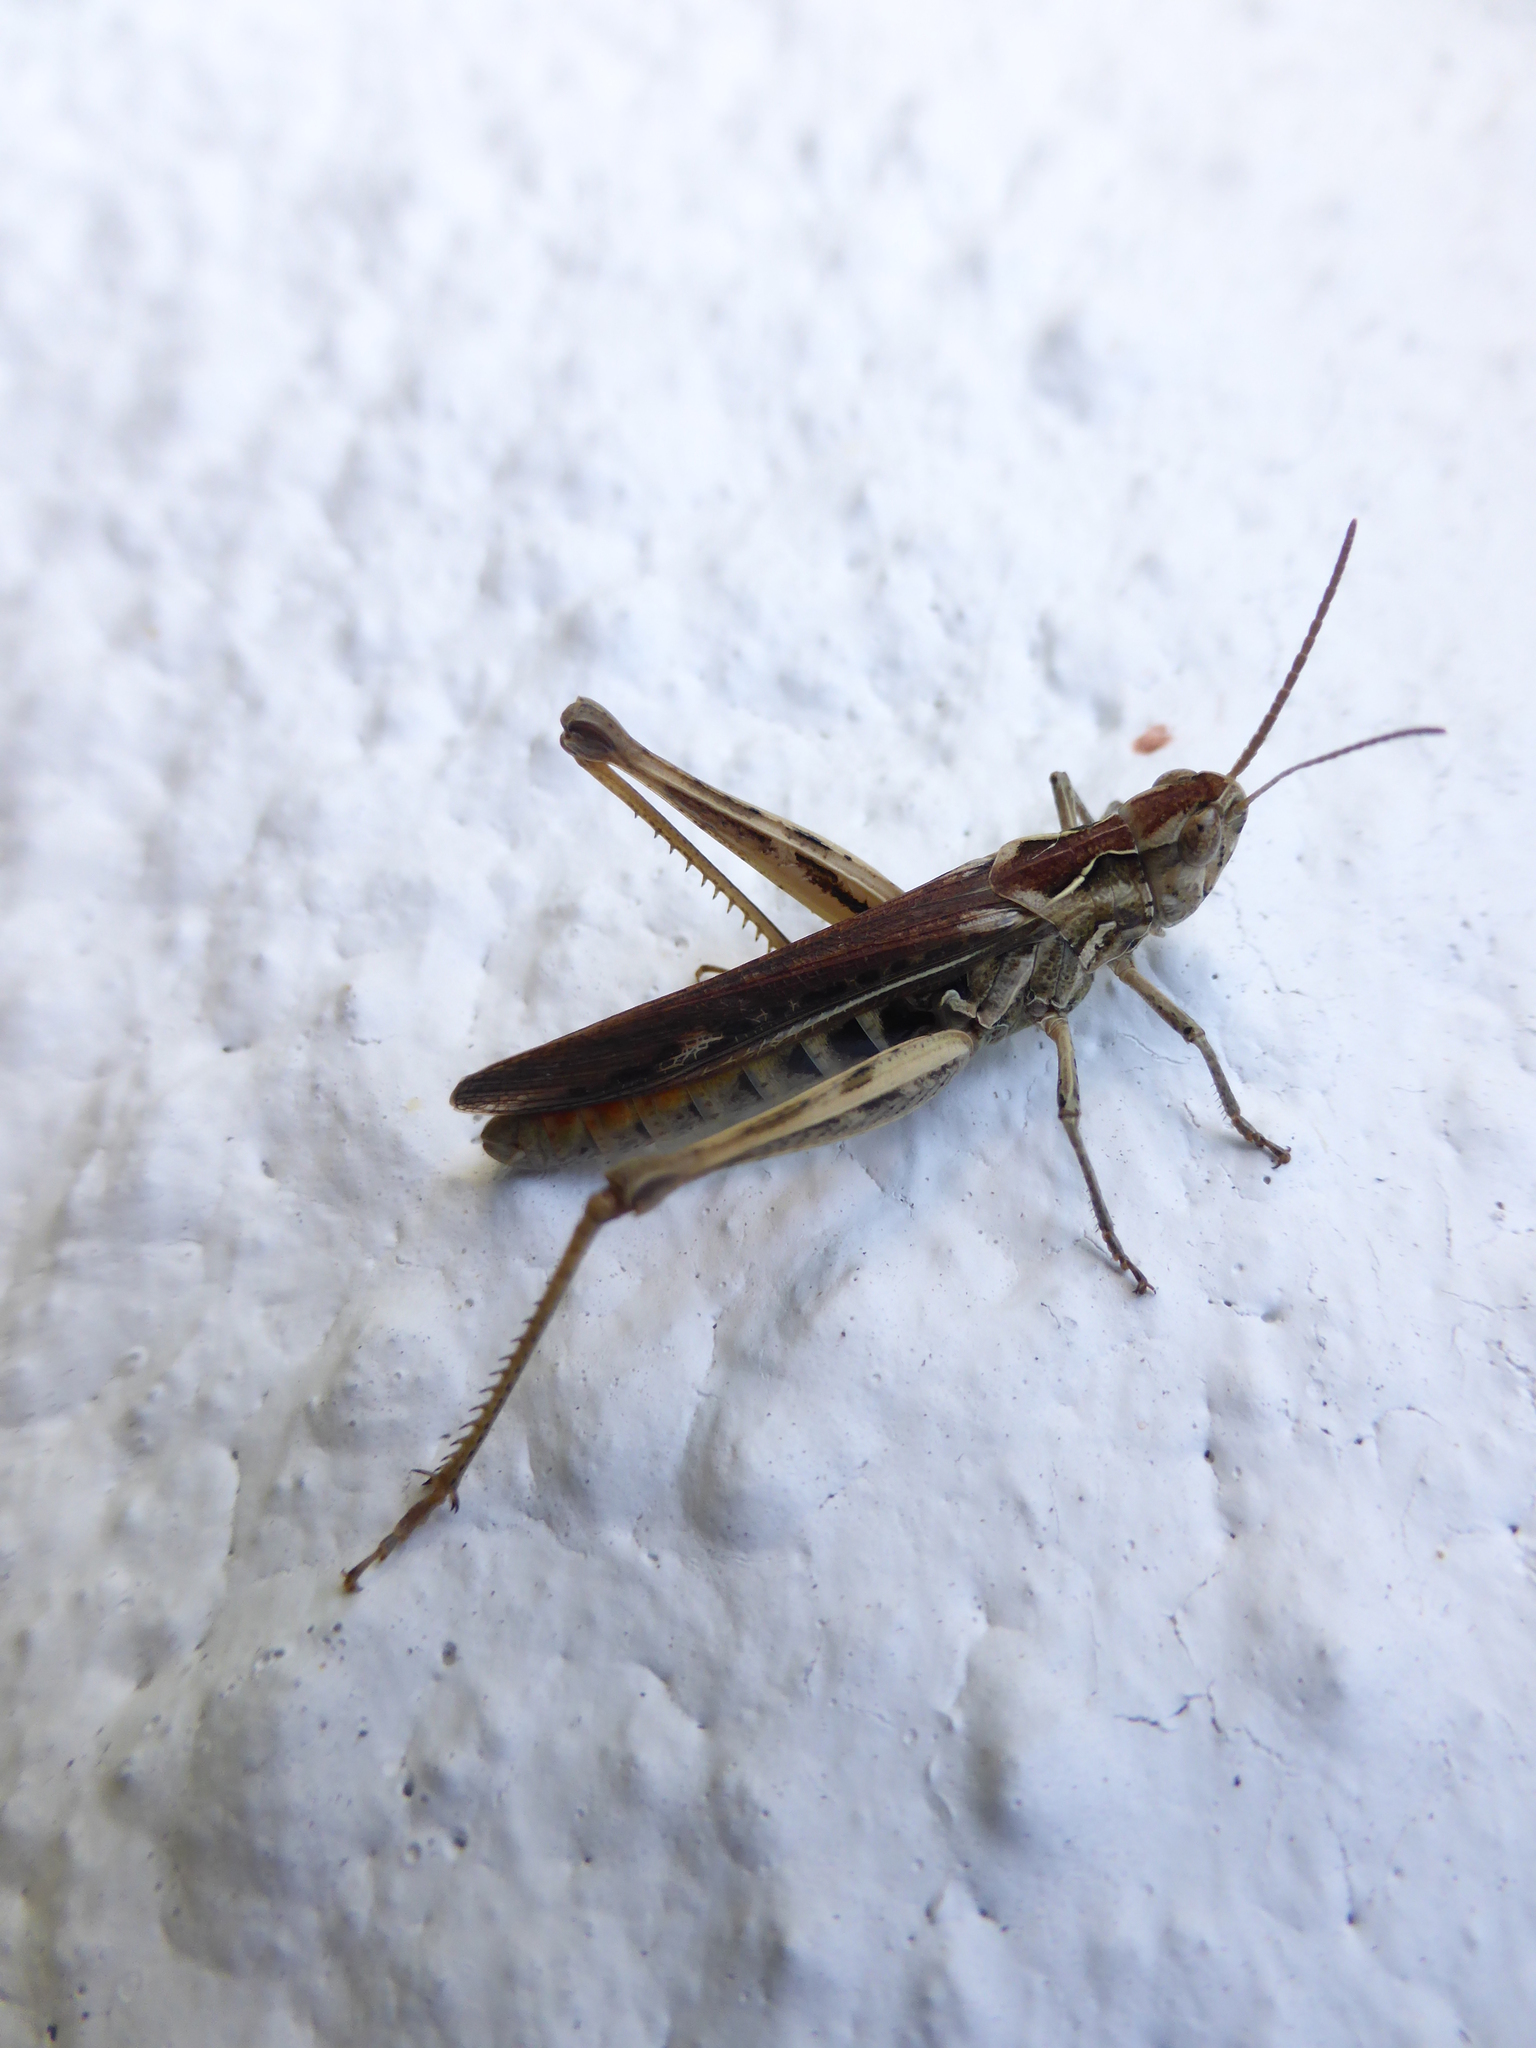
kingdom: Animalia
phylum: Arthropoda
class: Insecta
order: Orthoptera
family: Acrididae
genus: Chorthippus
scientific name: Chorthippus brunneus
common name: Field grasshopper
